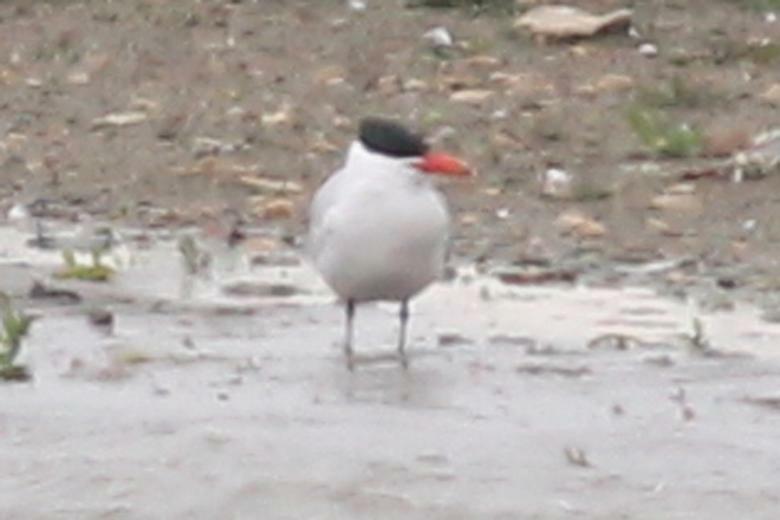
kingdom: Animalia
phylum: Chordata
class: Aves
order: Charadriiformes
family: Laridae
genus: Hydroprogne
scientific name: Hydroprogne caspia
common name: Caspian tern
